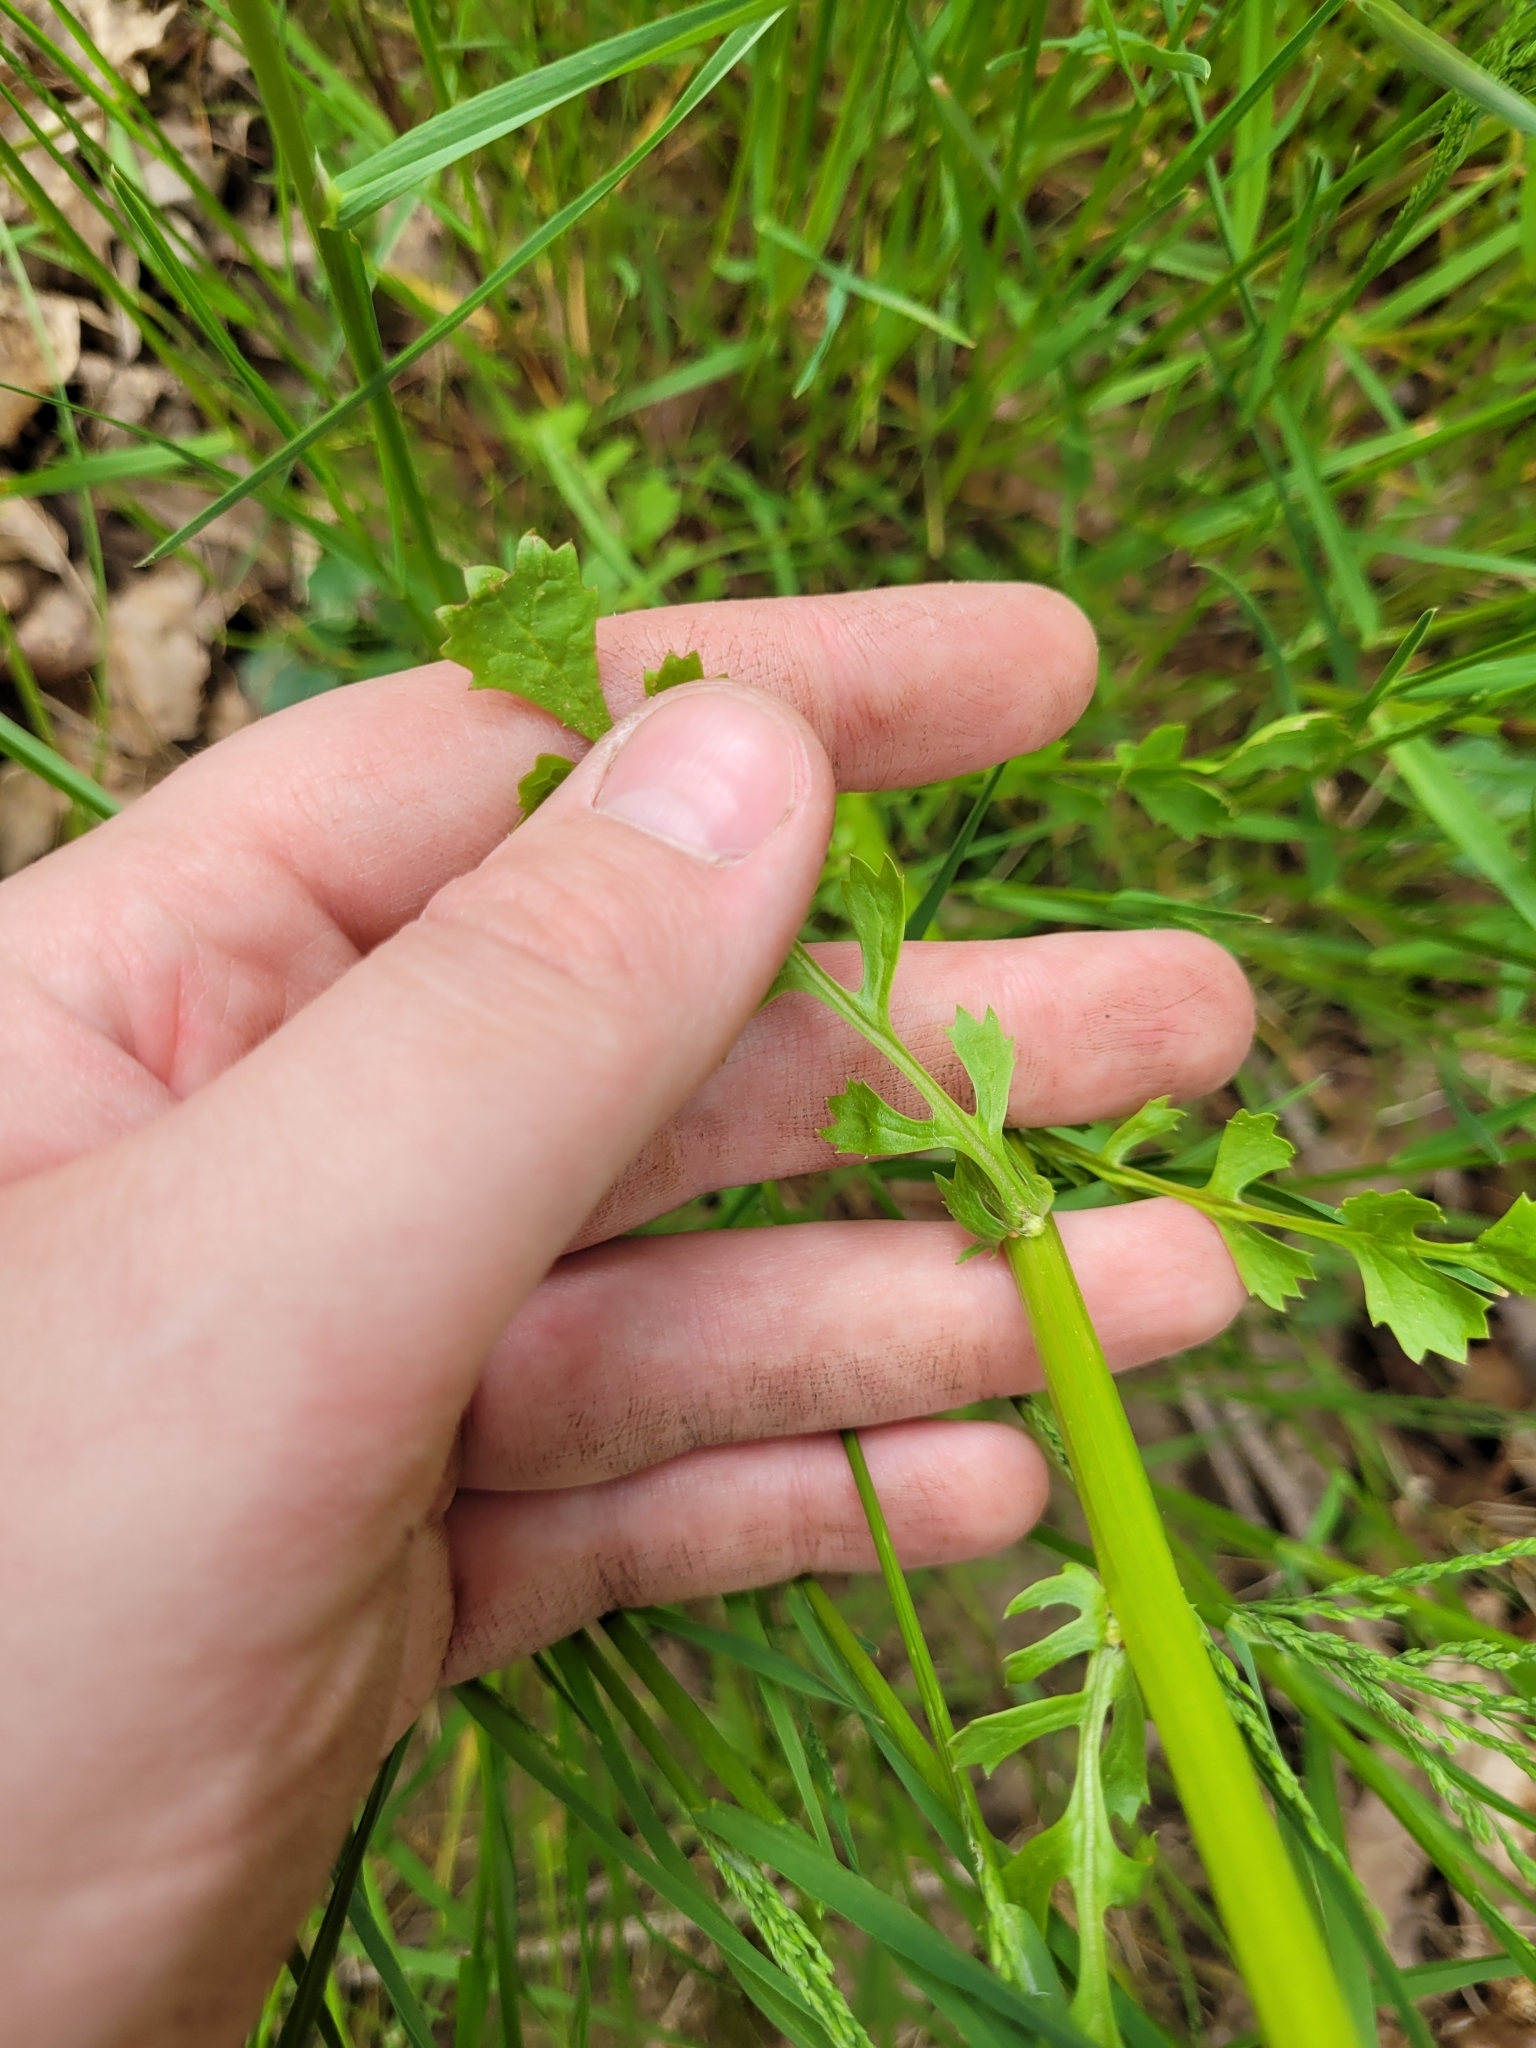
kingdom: Plantae
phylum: Tracheophyta
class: Magnoliopsida
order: Asterales
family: Asteraceae
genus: Packera
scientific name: Packera glabella
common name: Butterweed
